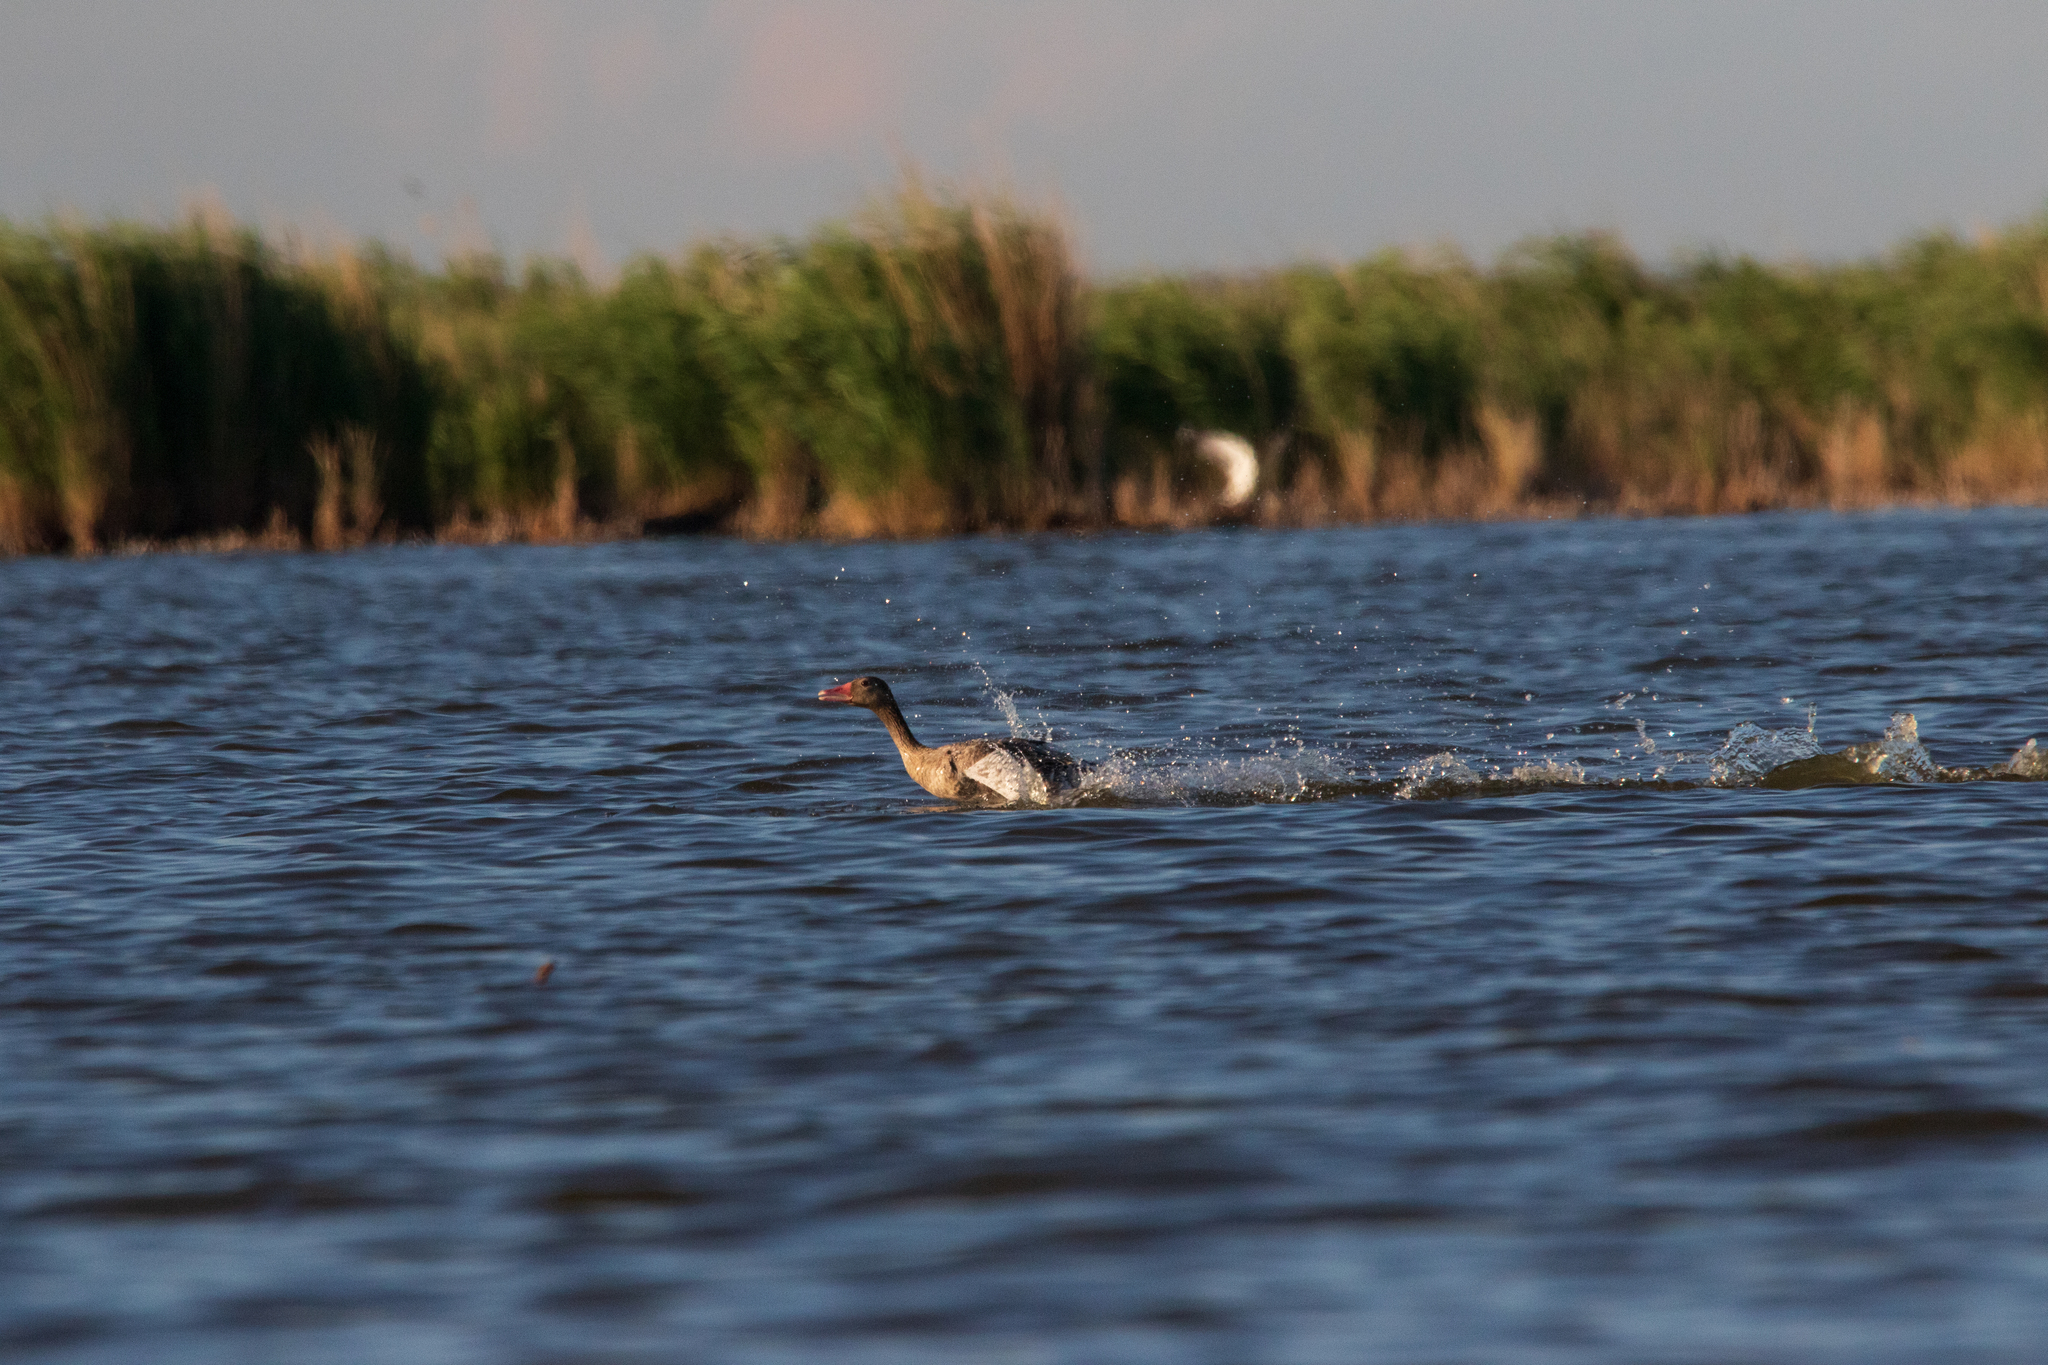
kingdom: Animalia
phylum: Chordata
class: Aves
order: Anseriformes
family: Anatidae
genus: Anser
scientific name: Anser anser
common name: Greylag goose
